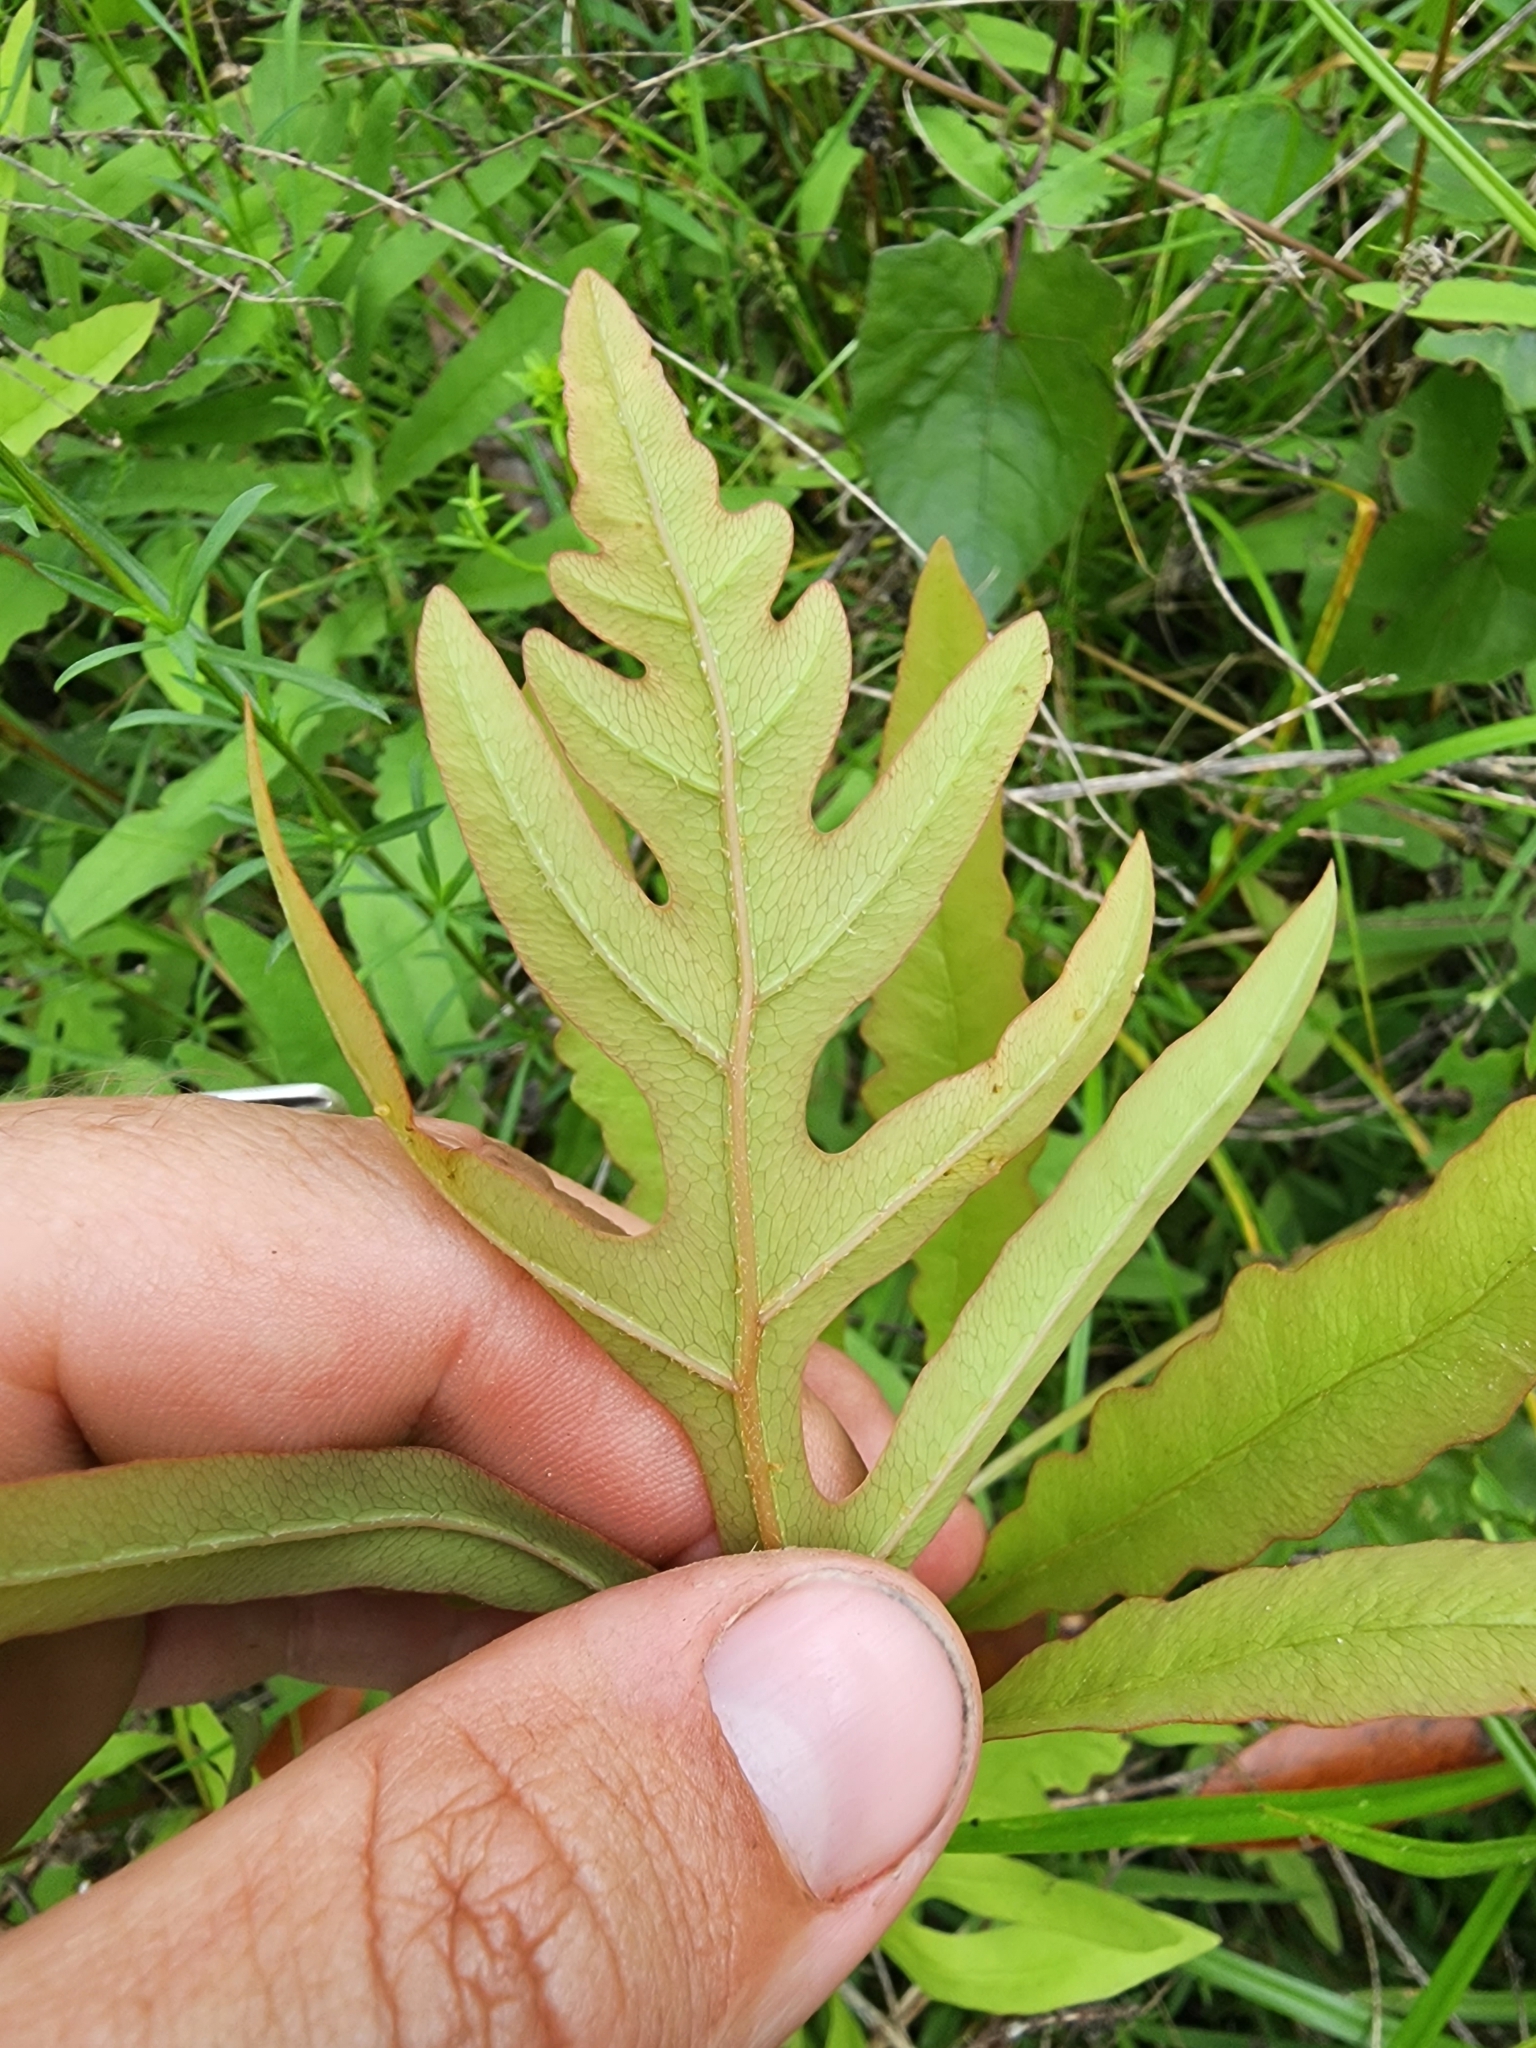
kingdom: Plantae
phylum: Tracheophyta
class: Polypodiopsida
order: Polypodiales
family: Onocleaceae
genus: Onoclea
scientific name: Onoclea sensibilis
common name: Sensitive fern
